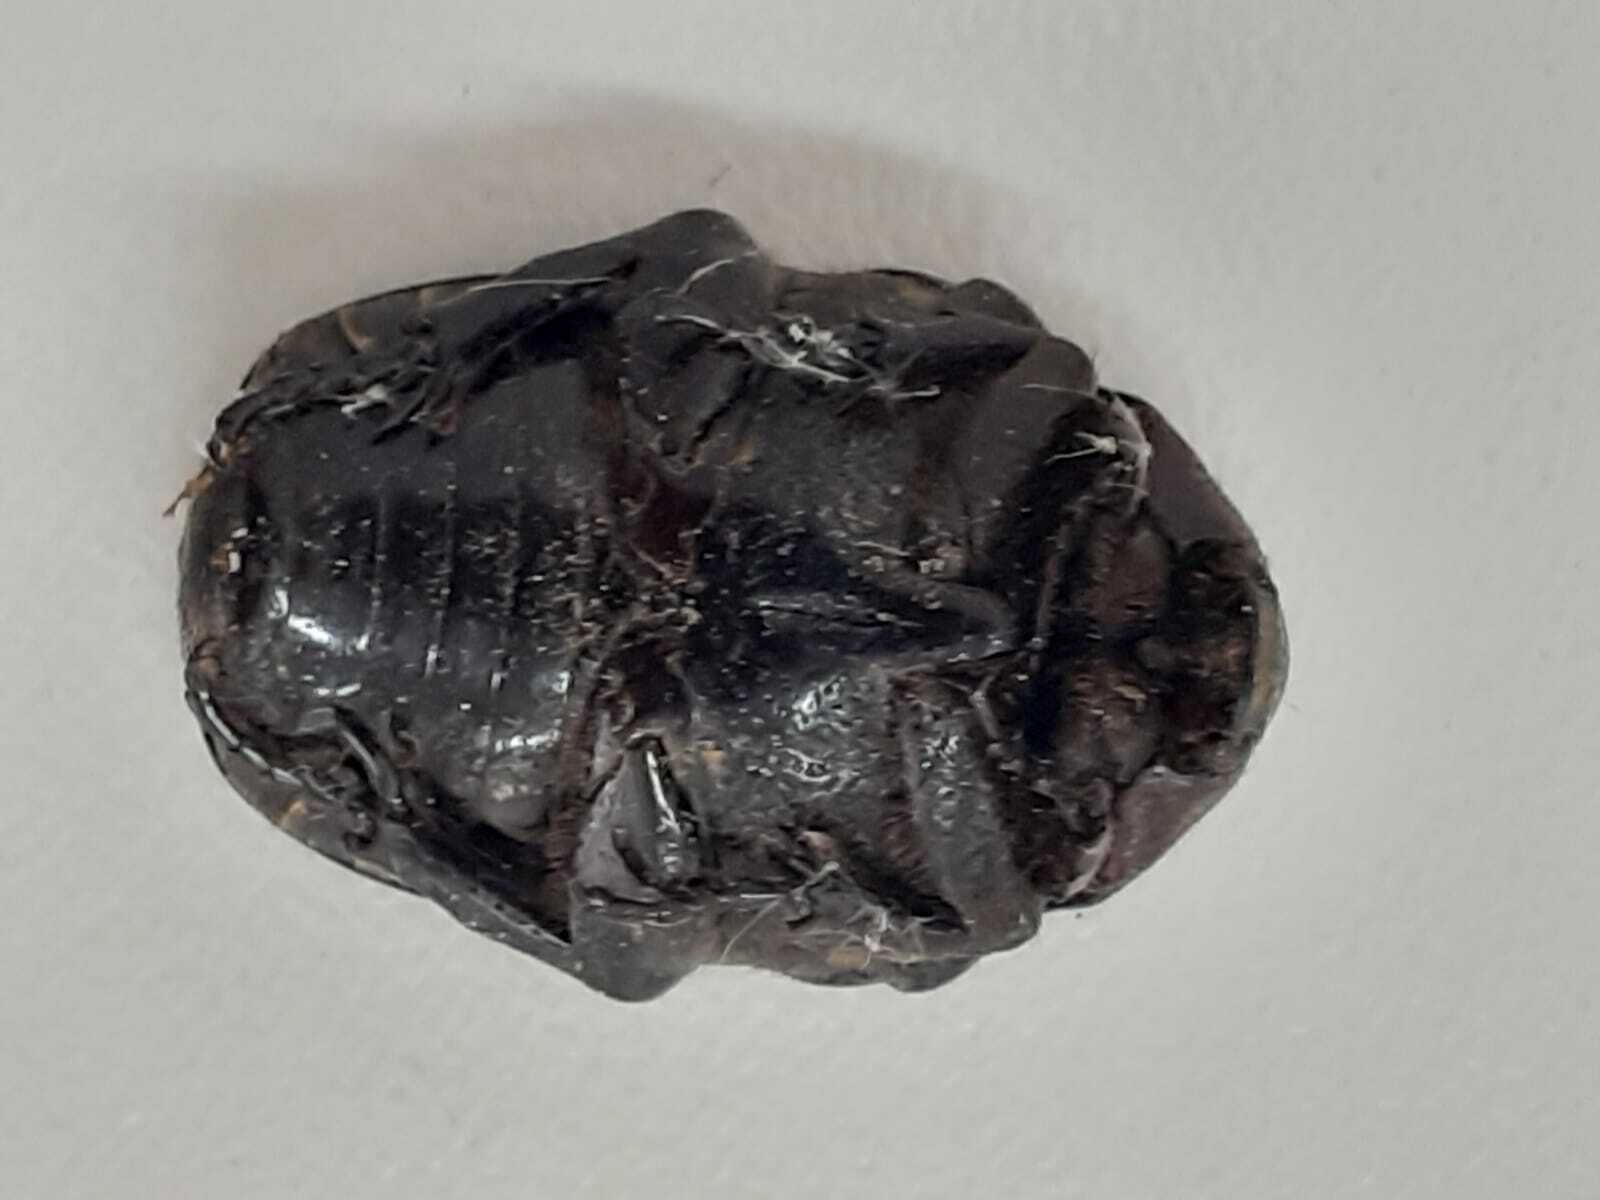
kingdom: Animalia
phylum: Arthropoda
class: Insecta
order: Coleoptera
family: Scarabaeidae
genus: Gymnetis
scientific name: Gymnetis aurantivittae
